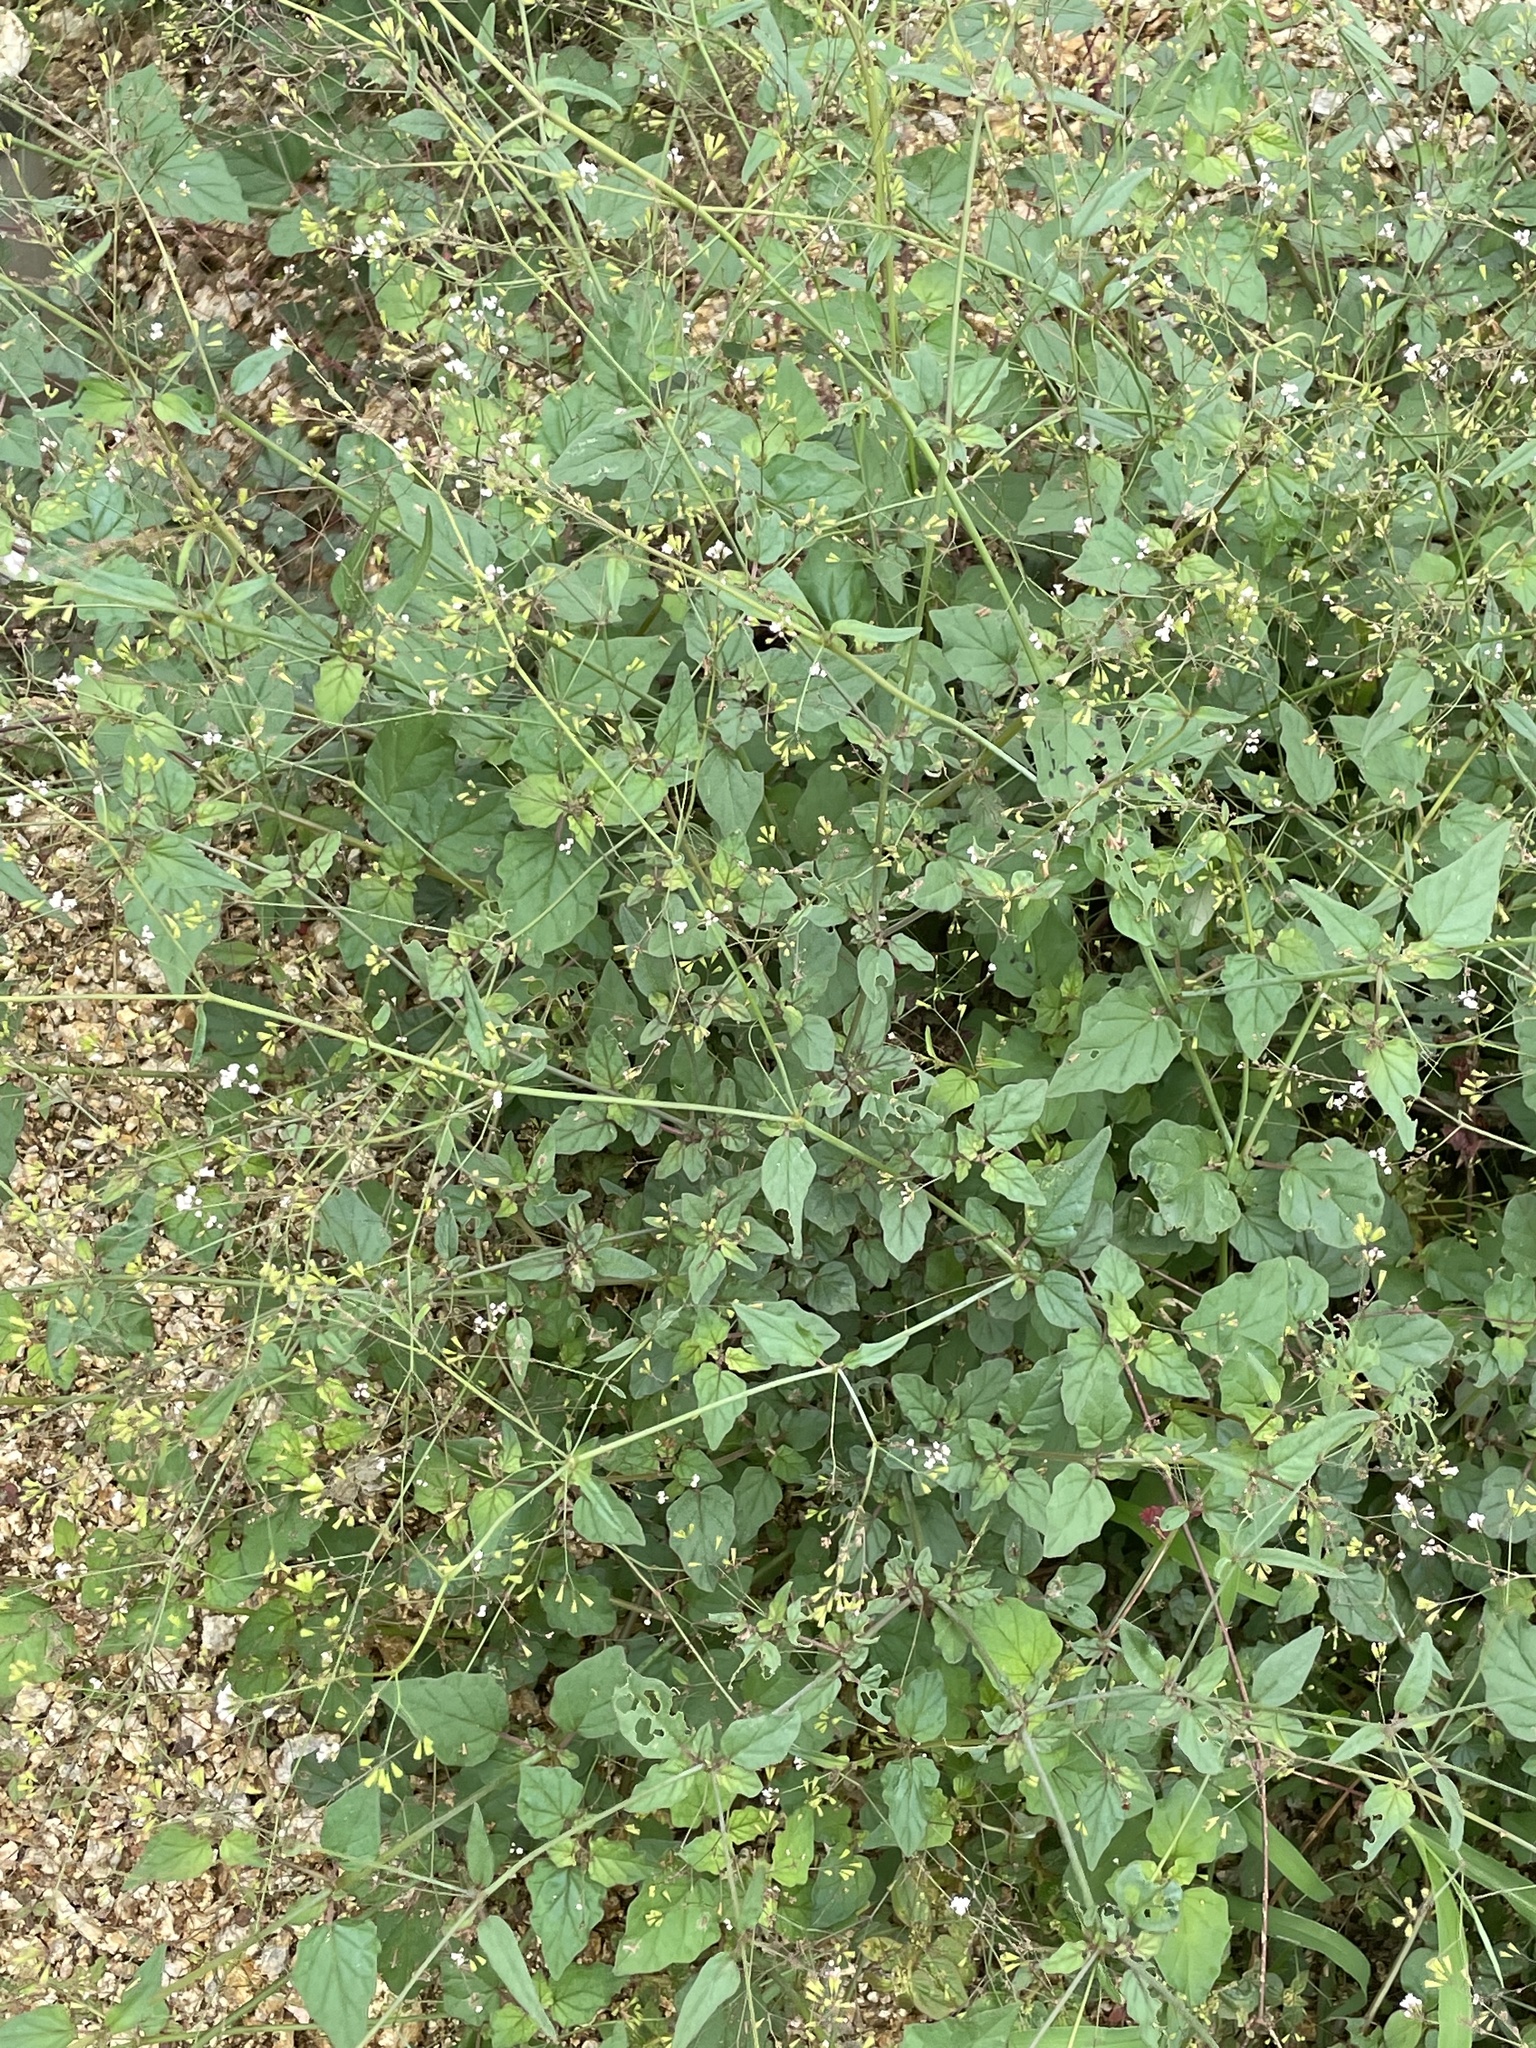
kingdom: Plantae
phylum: Tracheophyta
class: Magnoliopsida
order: Caryophyllales
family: Nyctaginaceae
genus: Boerhavia
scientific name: Boerhavia erecta
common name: Erect spiderling
